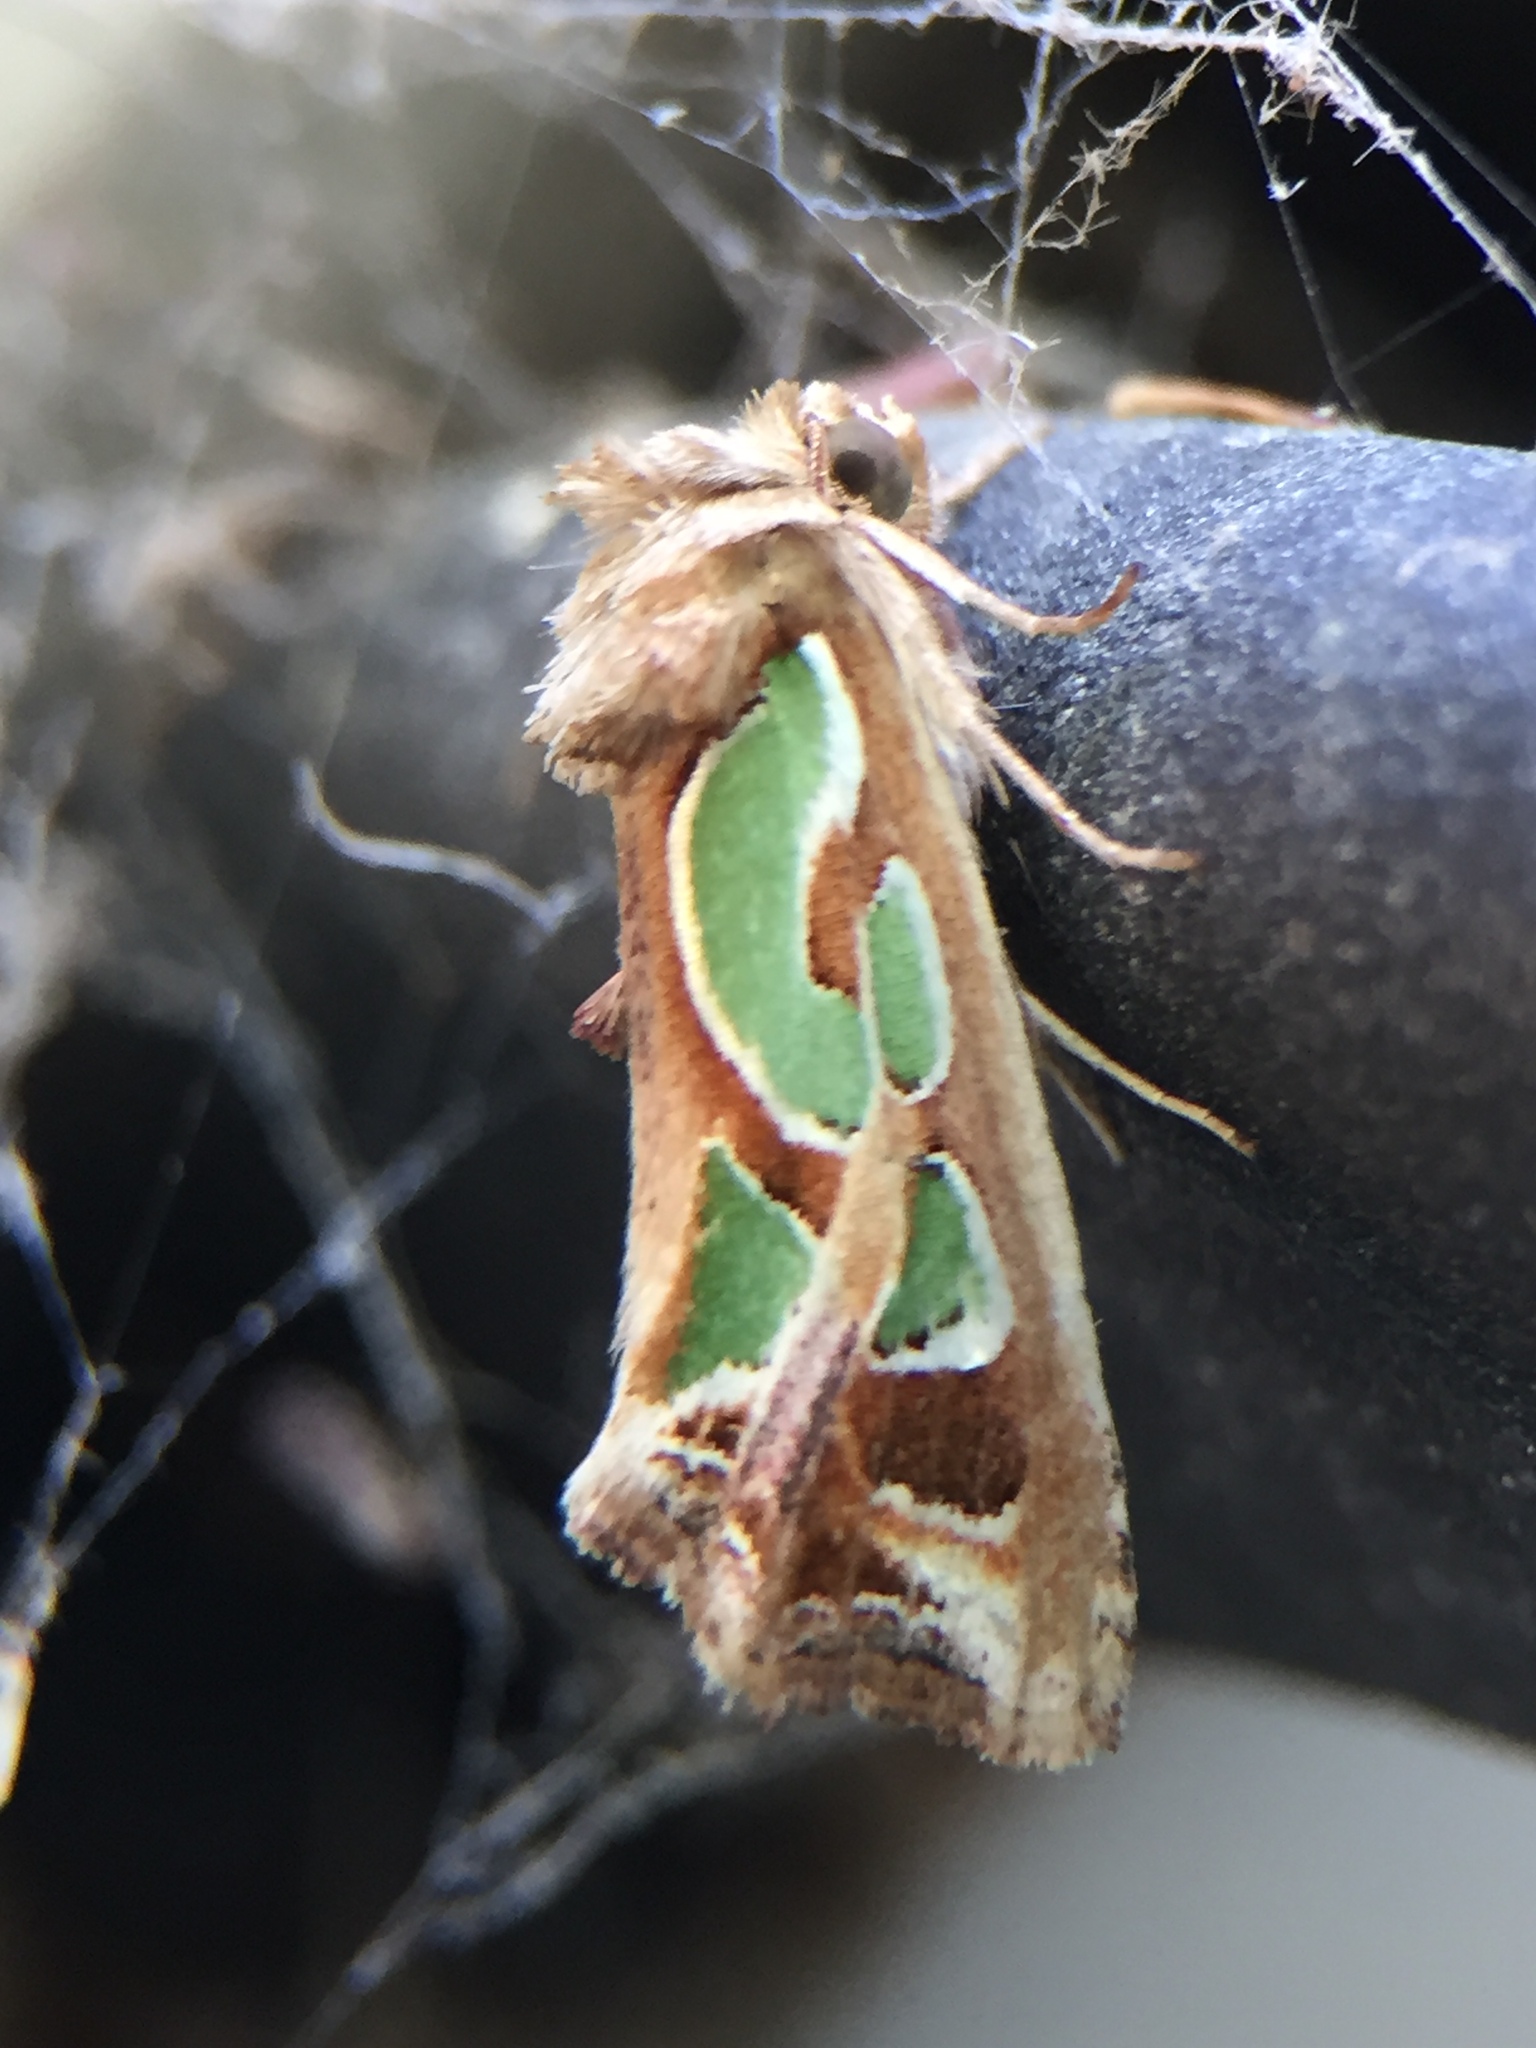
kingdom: Animalia
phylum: Arthropoda
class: Insecta
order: Lepidoptera
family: Noctuidae
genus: Cosmodes
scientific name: Cosmodes elegans
